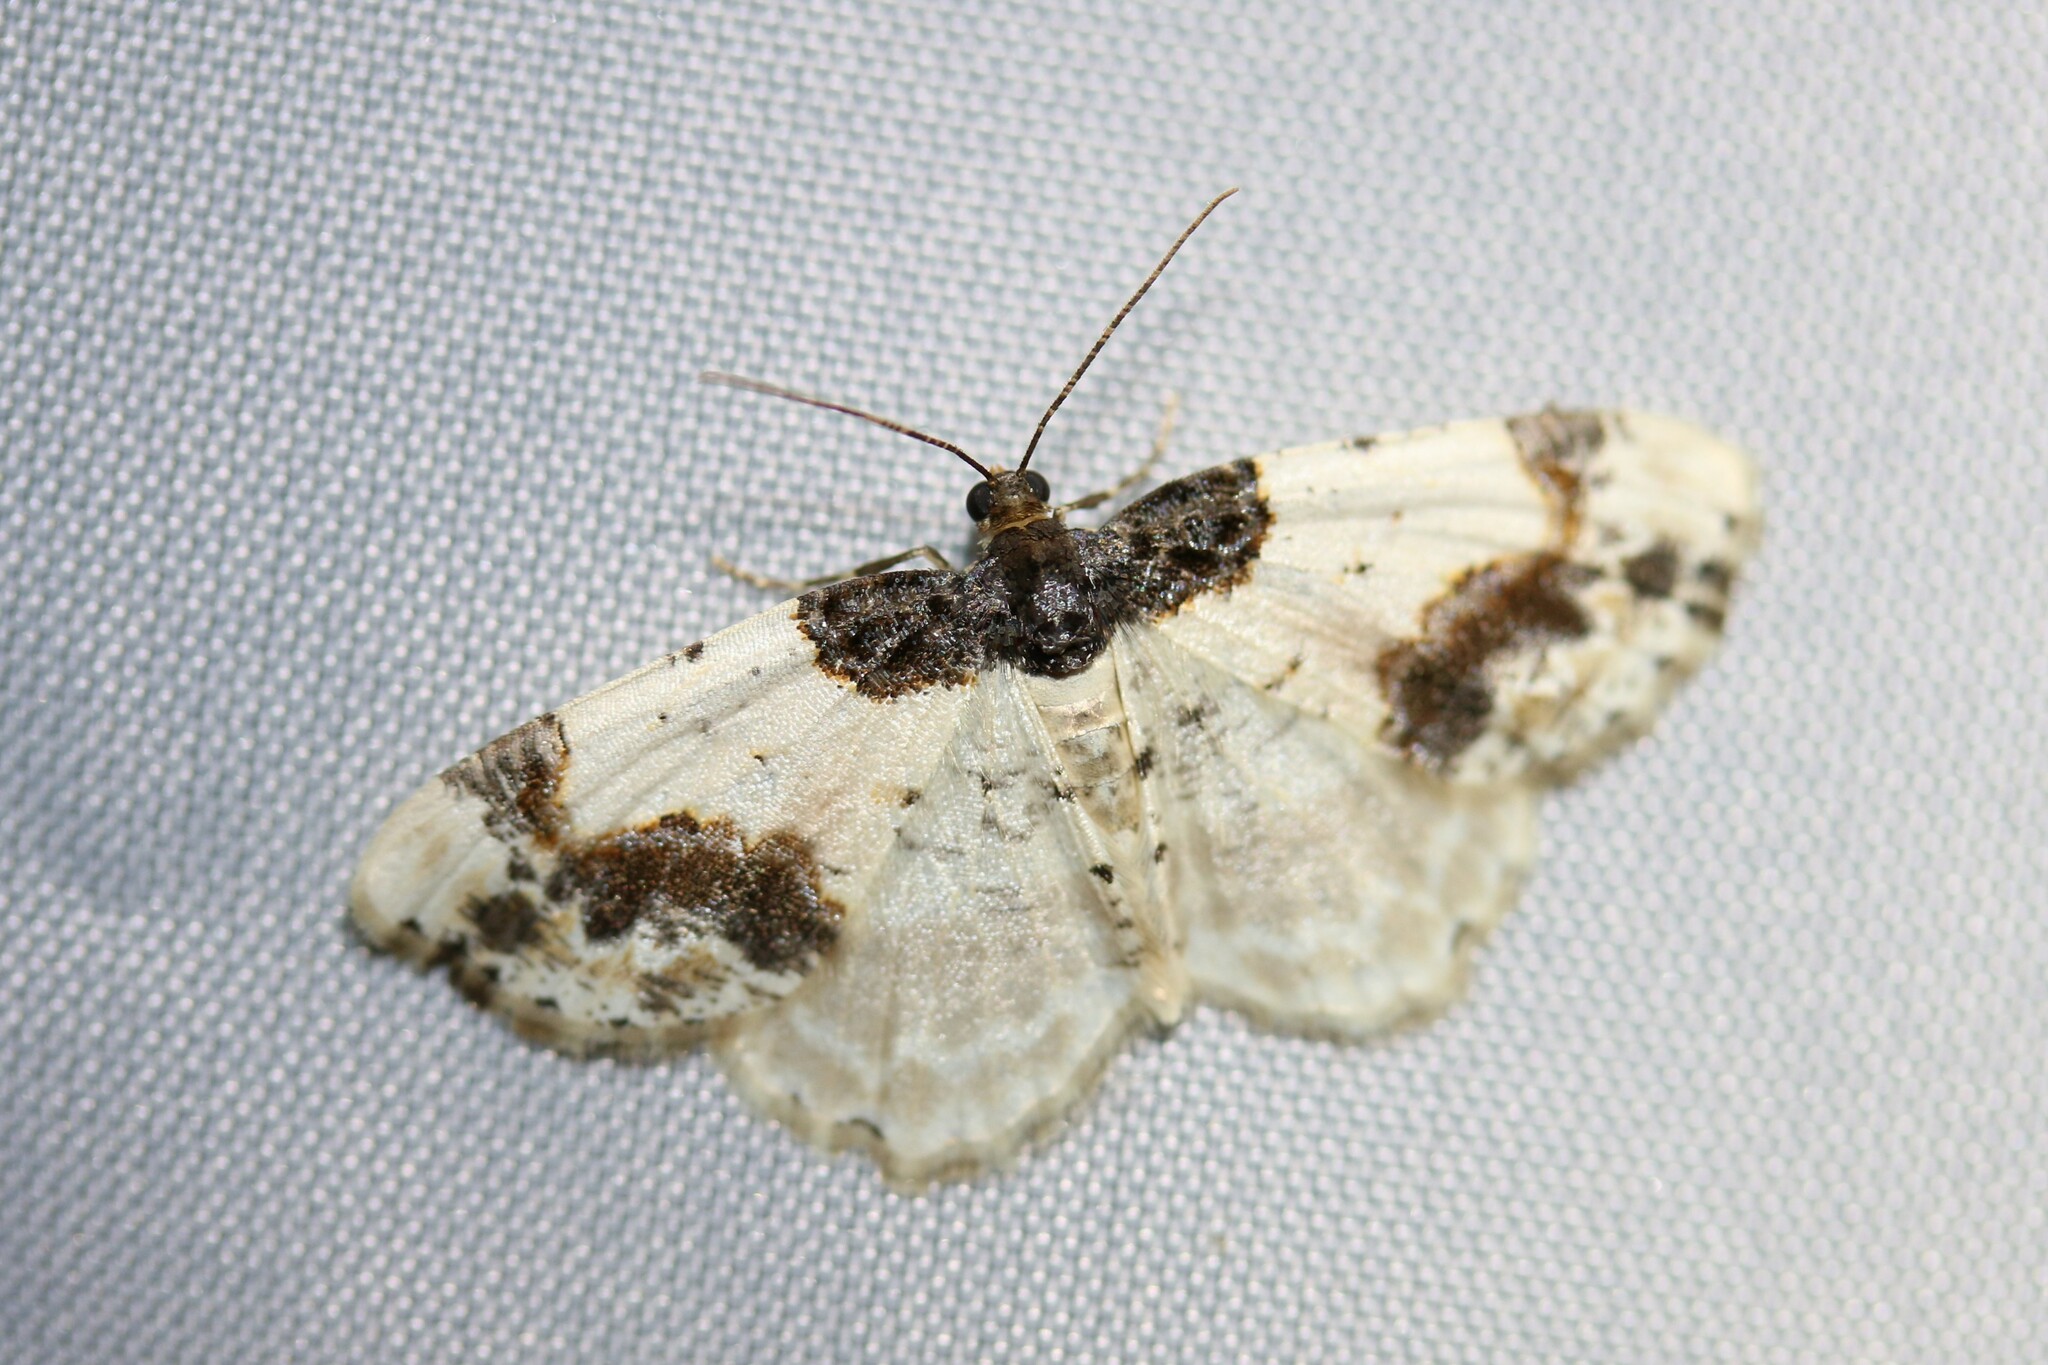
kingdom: Animalia
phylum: Arthropoda
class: Insecta
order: Lepidoptera
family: Geometridae
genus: Ligdia
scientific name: Ligdia adustata
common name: Scorched carpet
